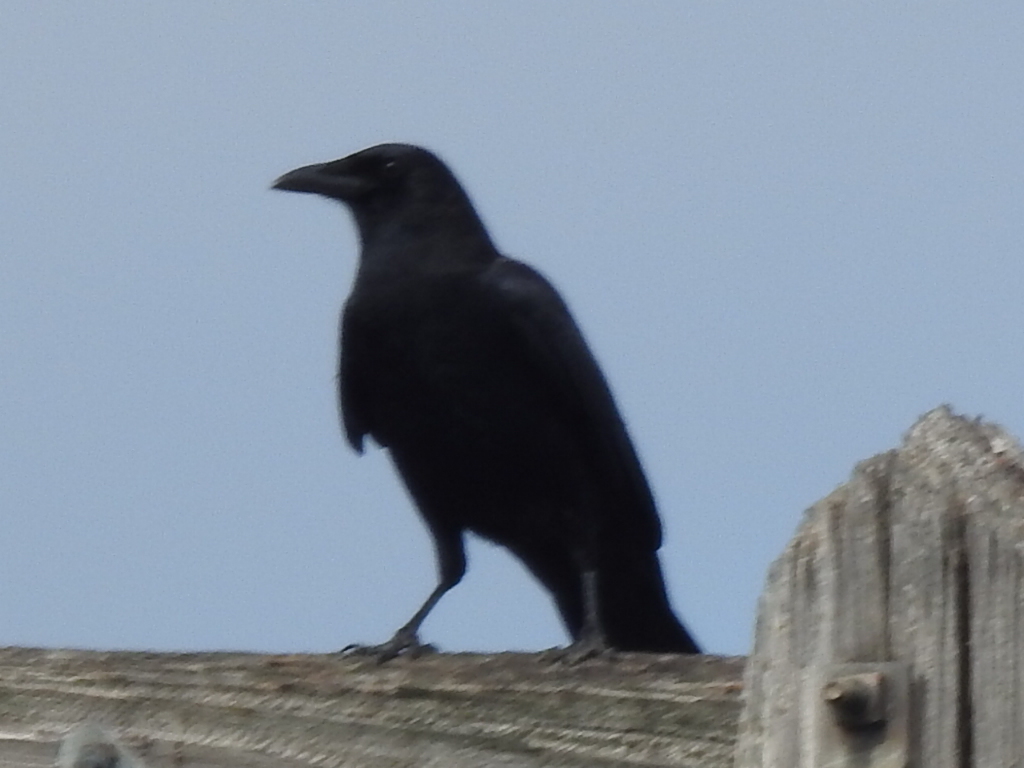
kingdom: Animalia
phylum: Chordata
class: Aves
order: Passeriformes
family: Corvidae
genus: Corvus
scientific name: Corvus brachyrhynchos
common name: American crow
